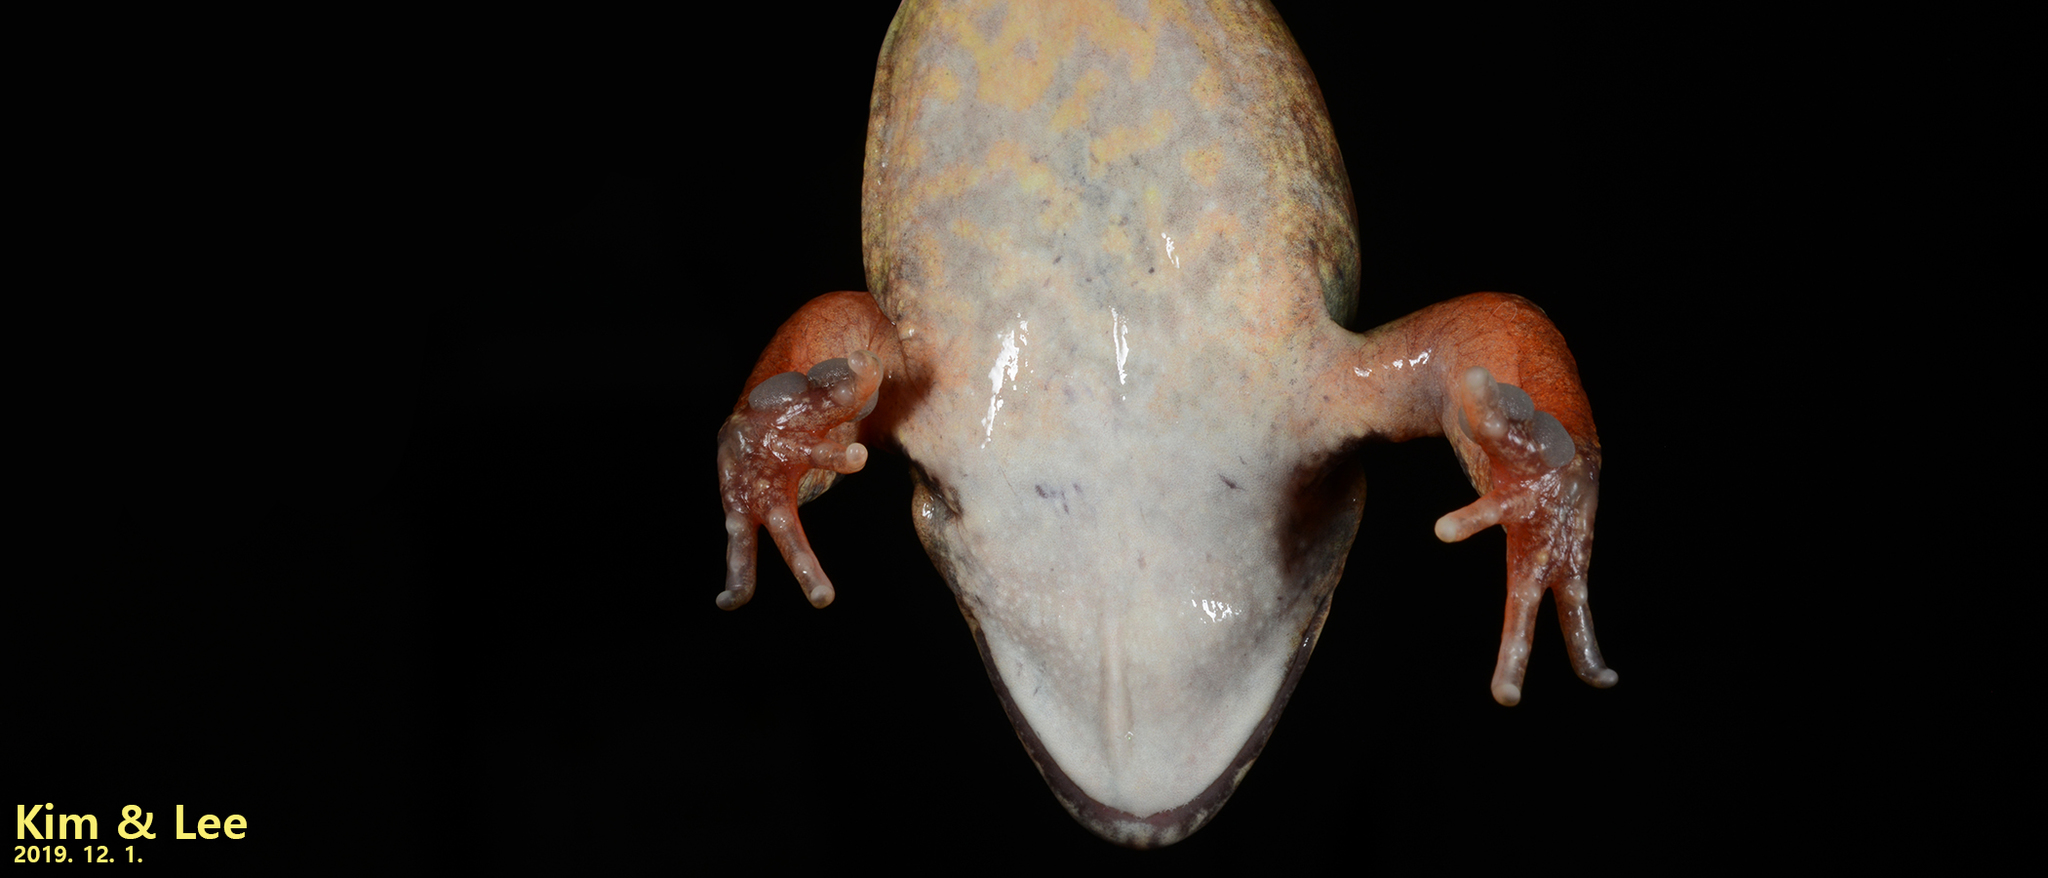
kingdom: Animalia
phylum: Chordata
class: Amphibia
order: Anura
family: Ranidae
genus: Rana
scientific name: Rana dybowskii
